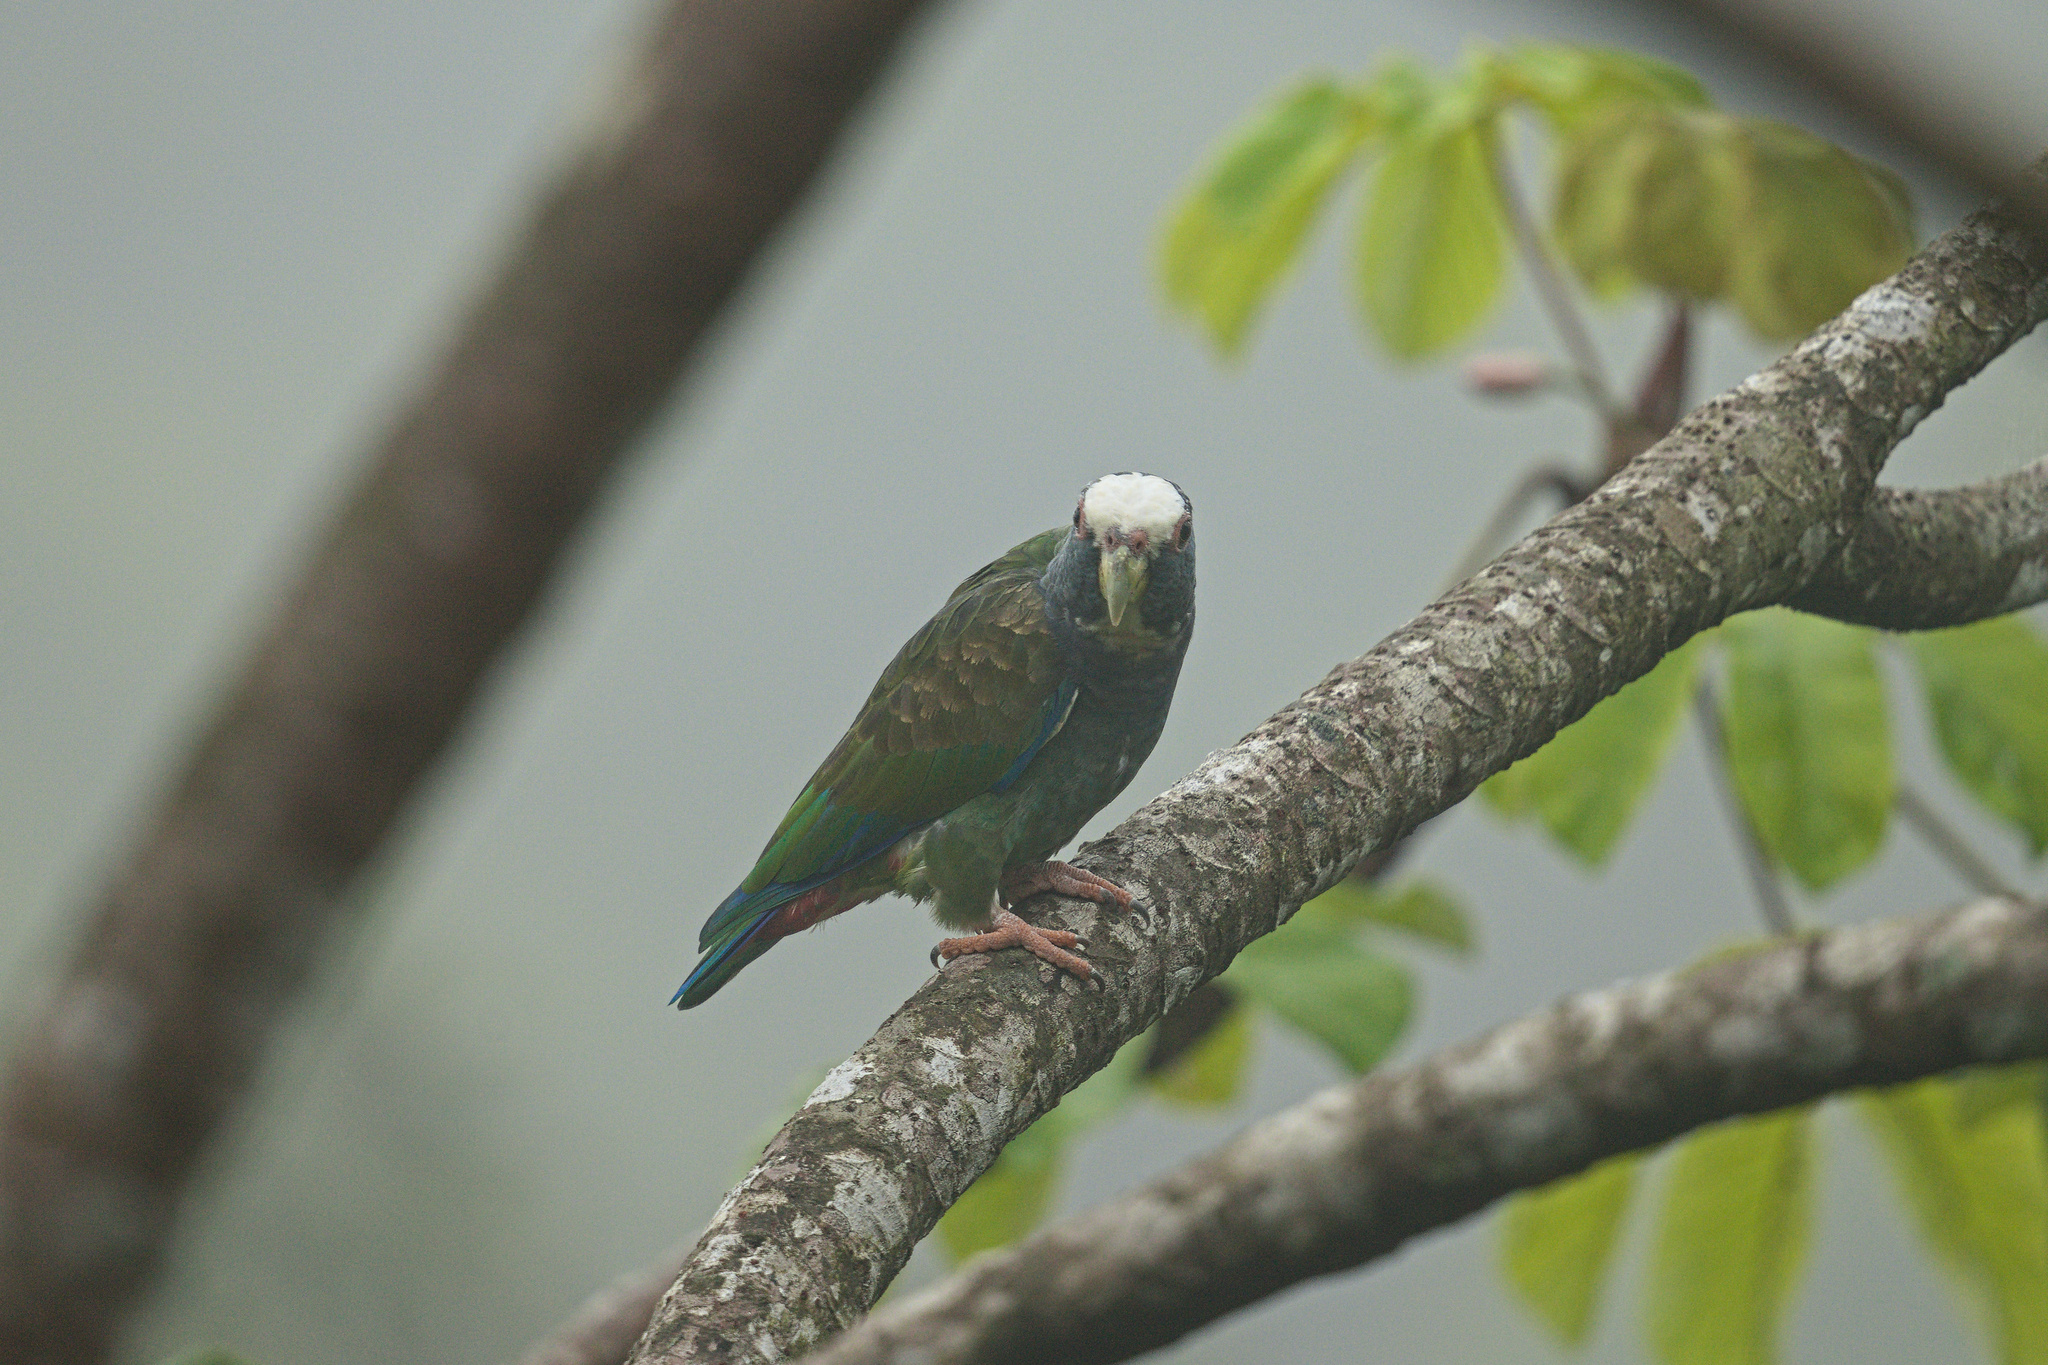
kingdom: Animalia
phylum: Chordata
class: Aves
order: Psittaciformes
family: Psittacidae
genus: Pionus
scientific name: Pionus senilis
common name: White-crowned parrot
